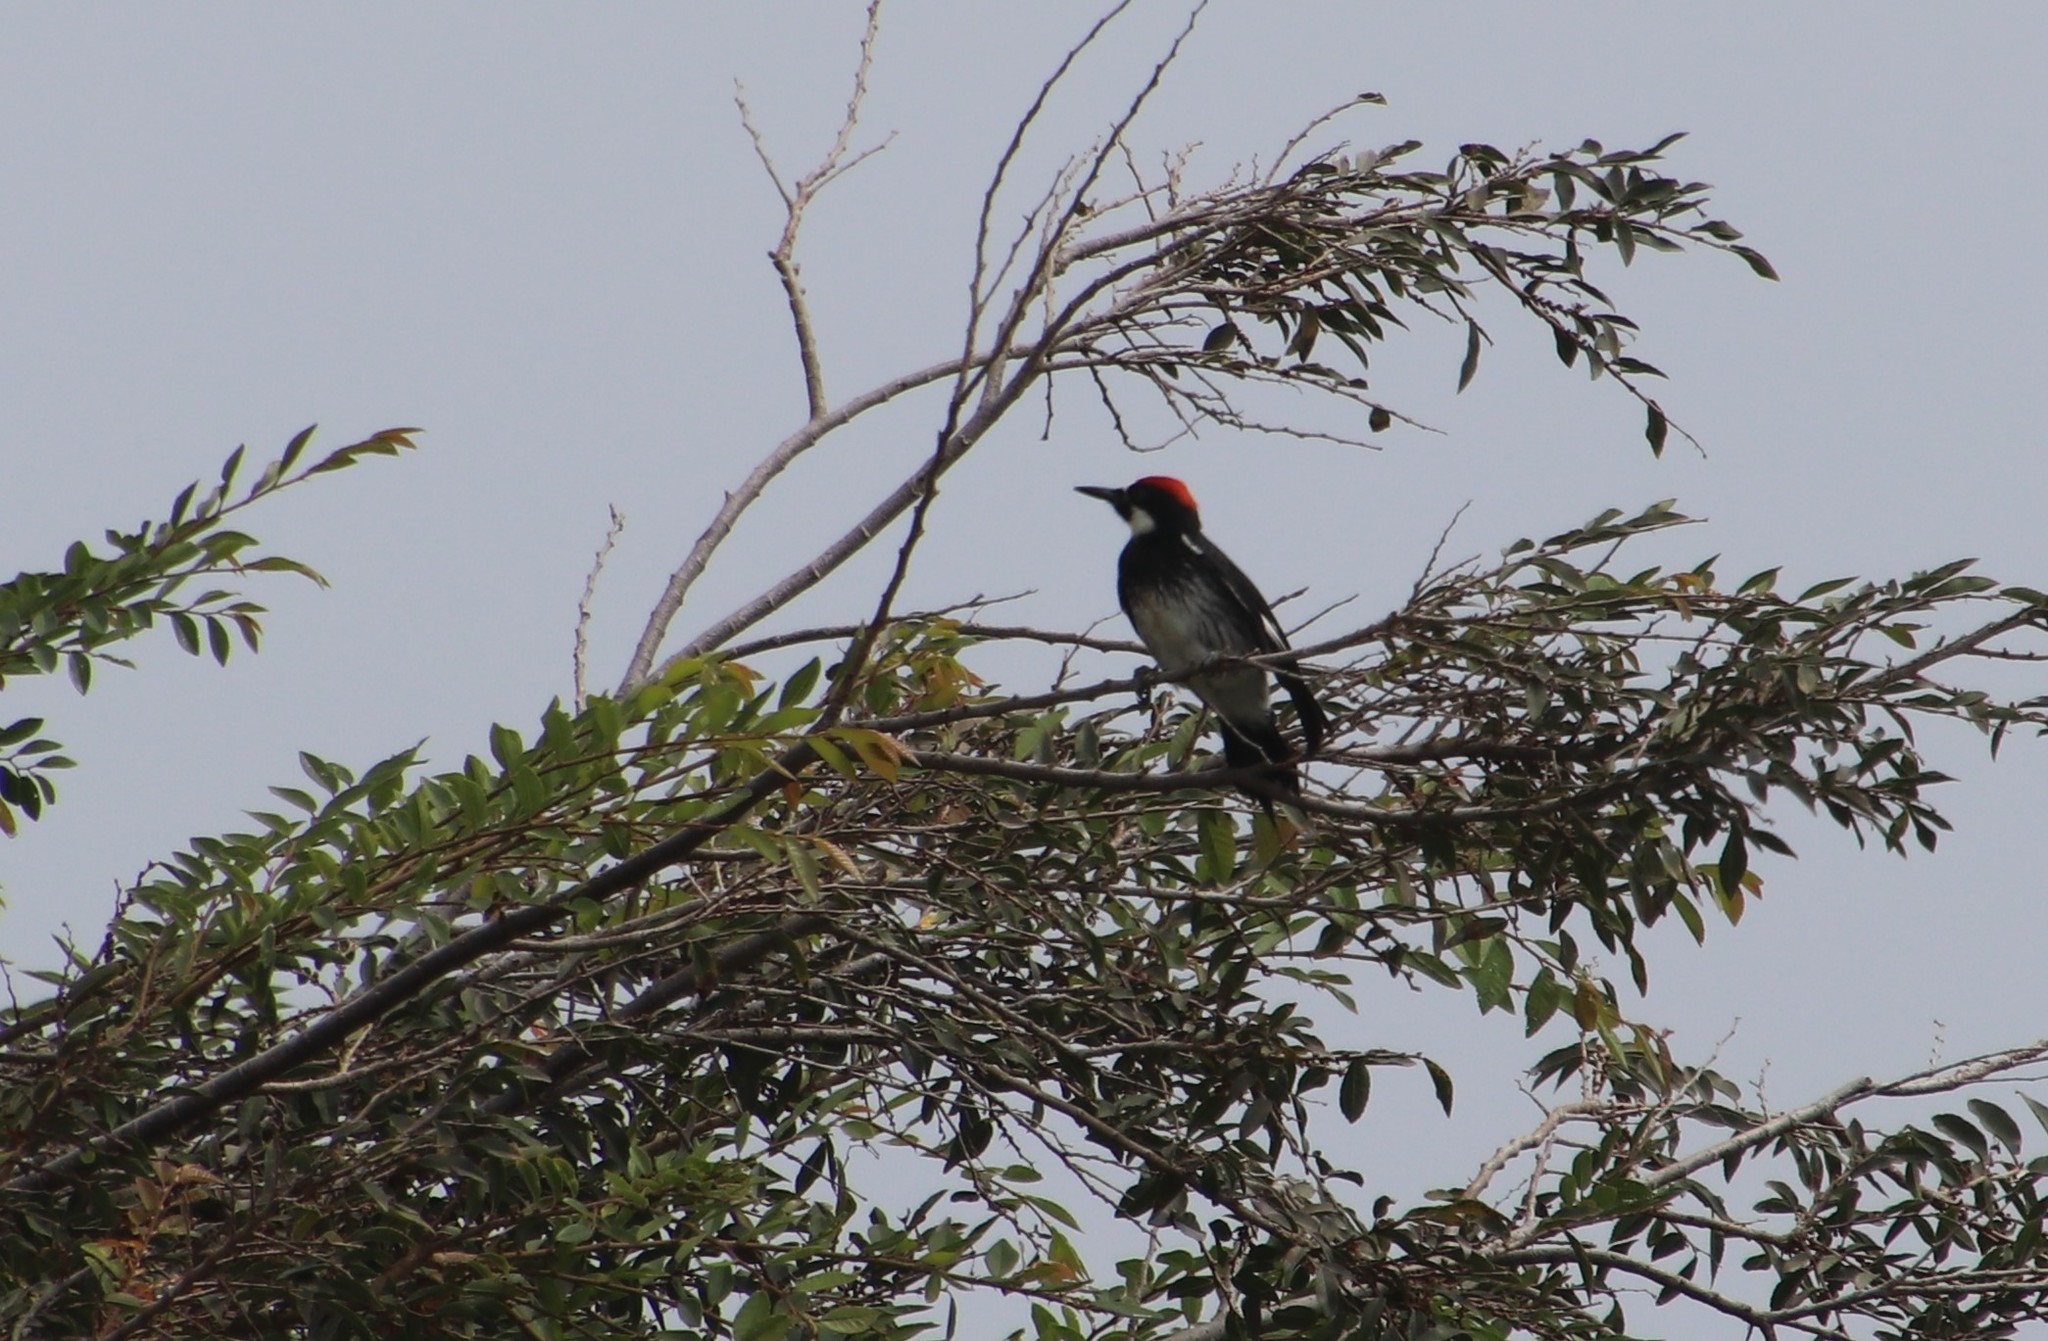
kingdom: Animalia
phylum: Chordata
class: Aves
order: Piciformes
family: Picidae
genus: Melanerpes
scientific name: Melanerpes formicivorus
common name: Acorn woodpecker
